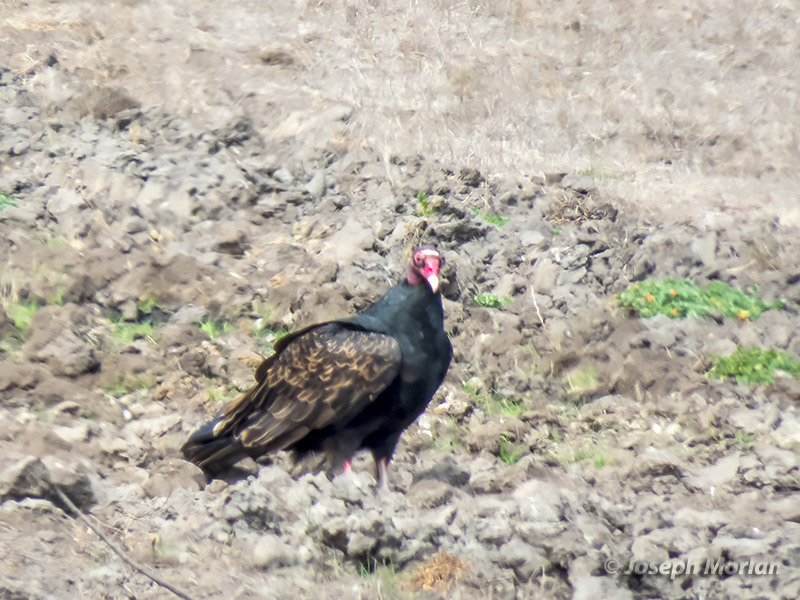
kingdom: Animalia
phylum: Chordata
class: Aves
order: Accipitriformes
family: Cathartidae
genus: Cathartes
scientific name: Cathartes aura
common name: Turkey vulture
